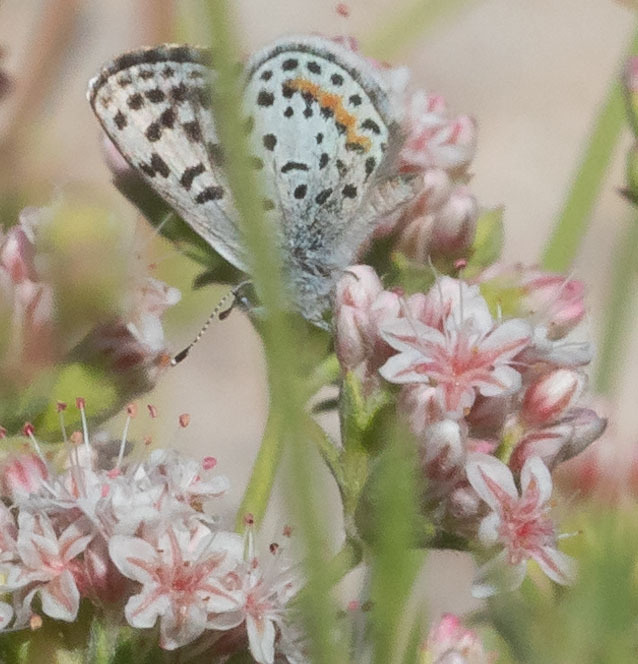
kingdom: Animalia
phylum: Arthropoda
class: Insecta
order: Lepidoptera
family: Lycaenidae
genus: Philotes
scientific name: Philotes bernardino
